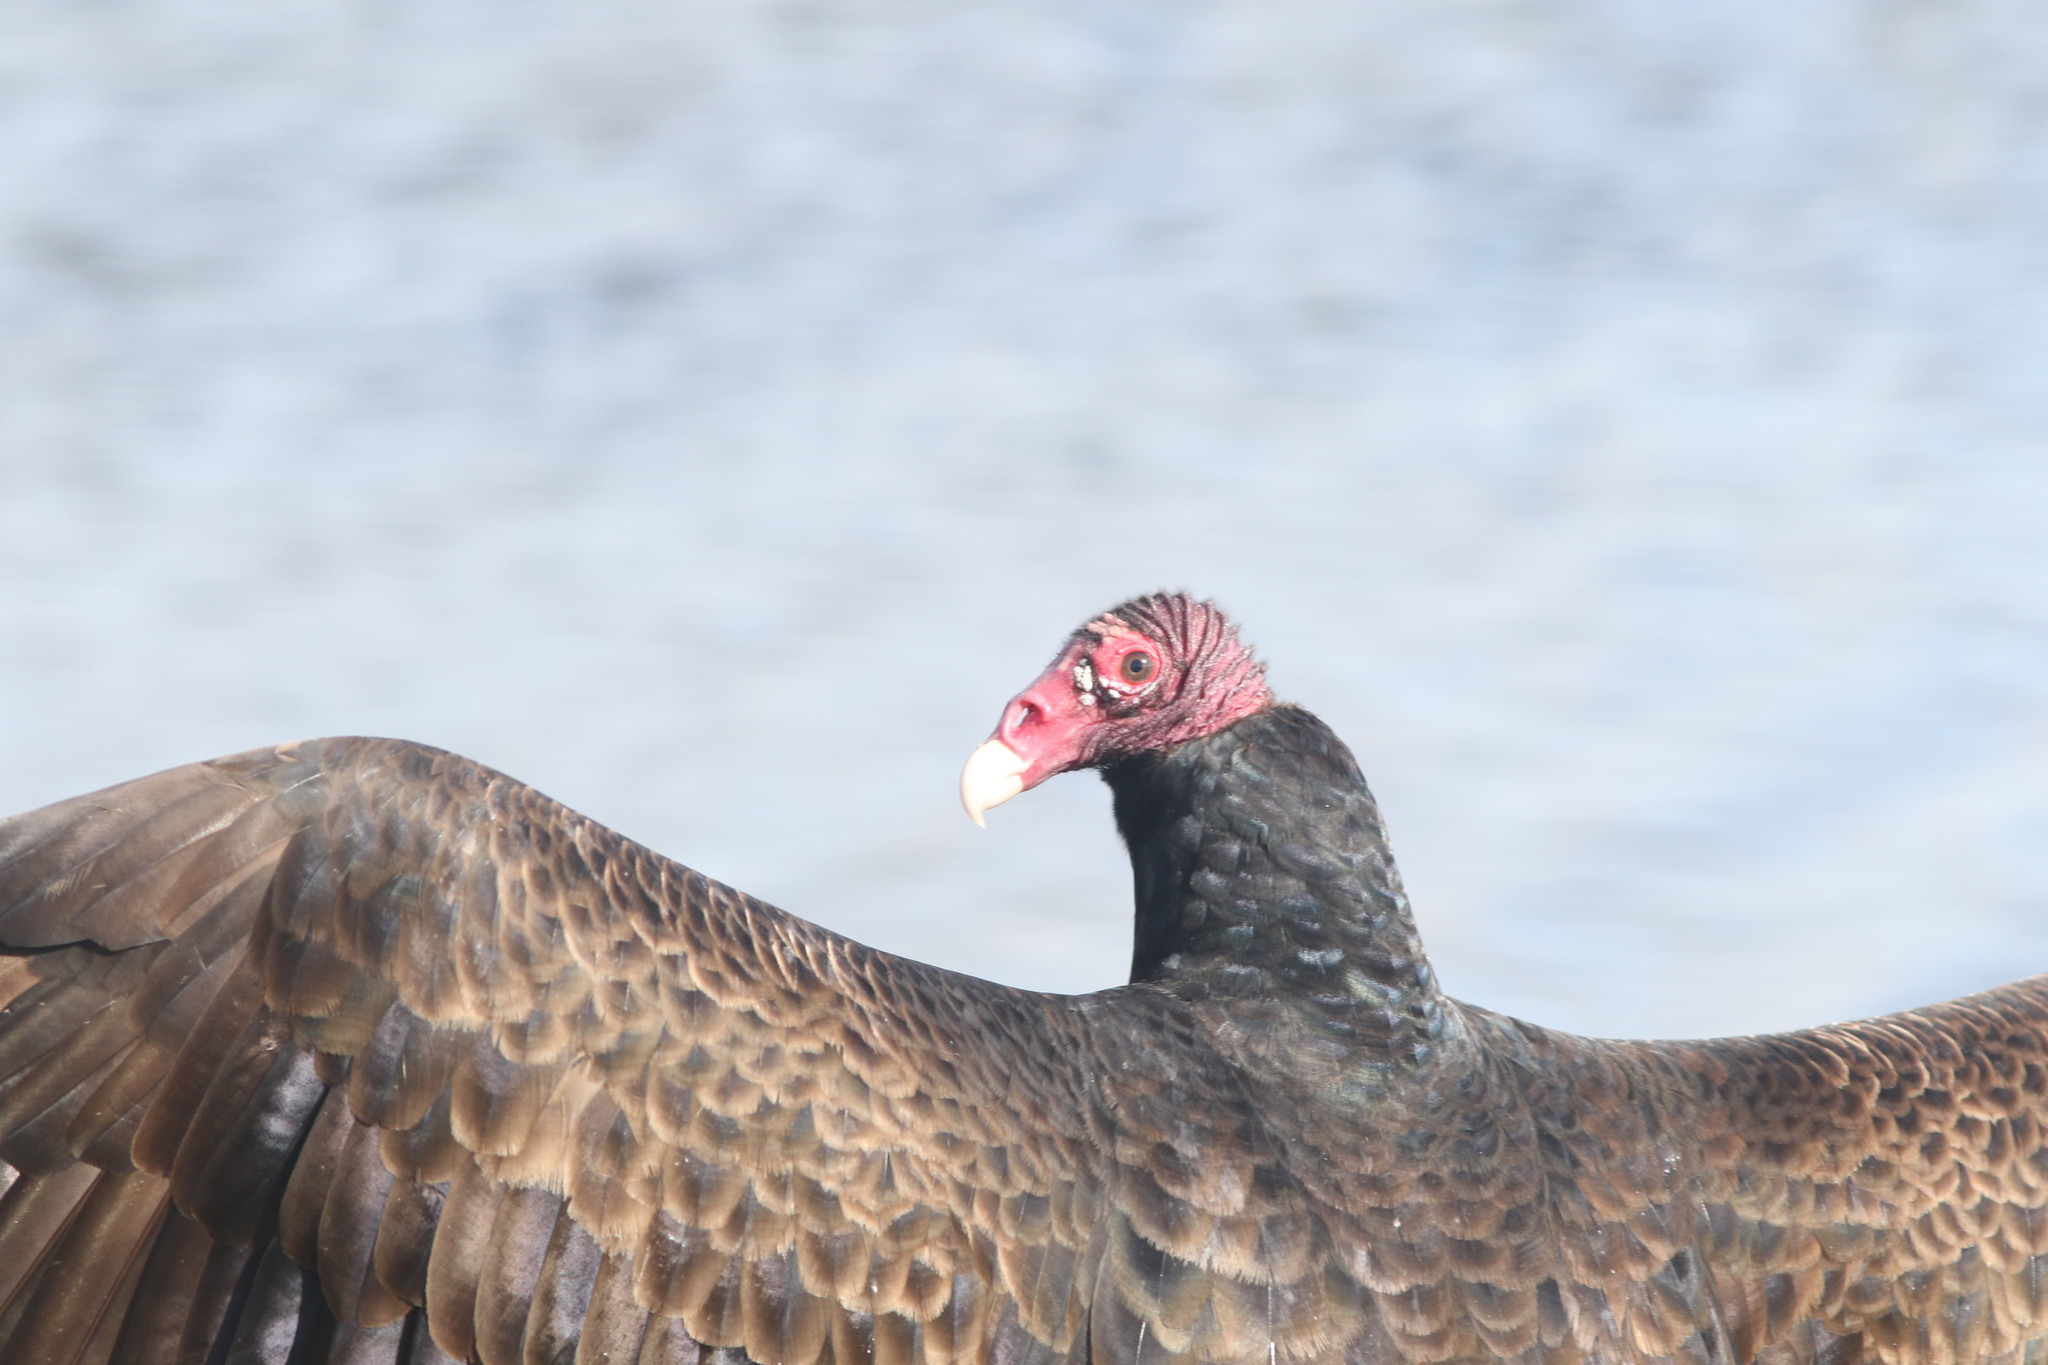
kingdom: Animalia
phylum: Chordata
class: Aves
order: Accipitriformes
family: Cathartidae
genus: Cathartes
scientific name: Cathartes aura
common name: Turkey vulture
